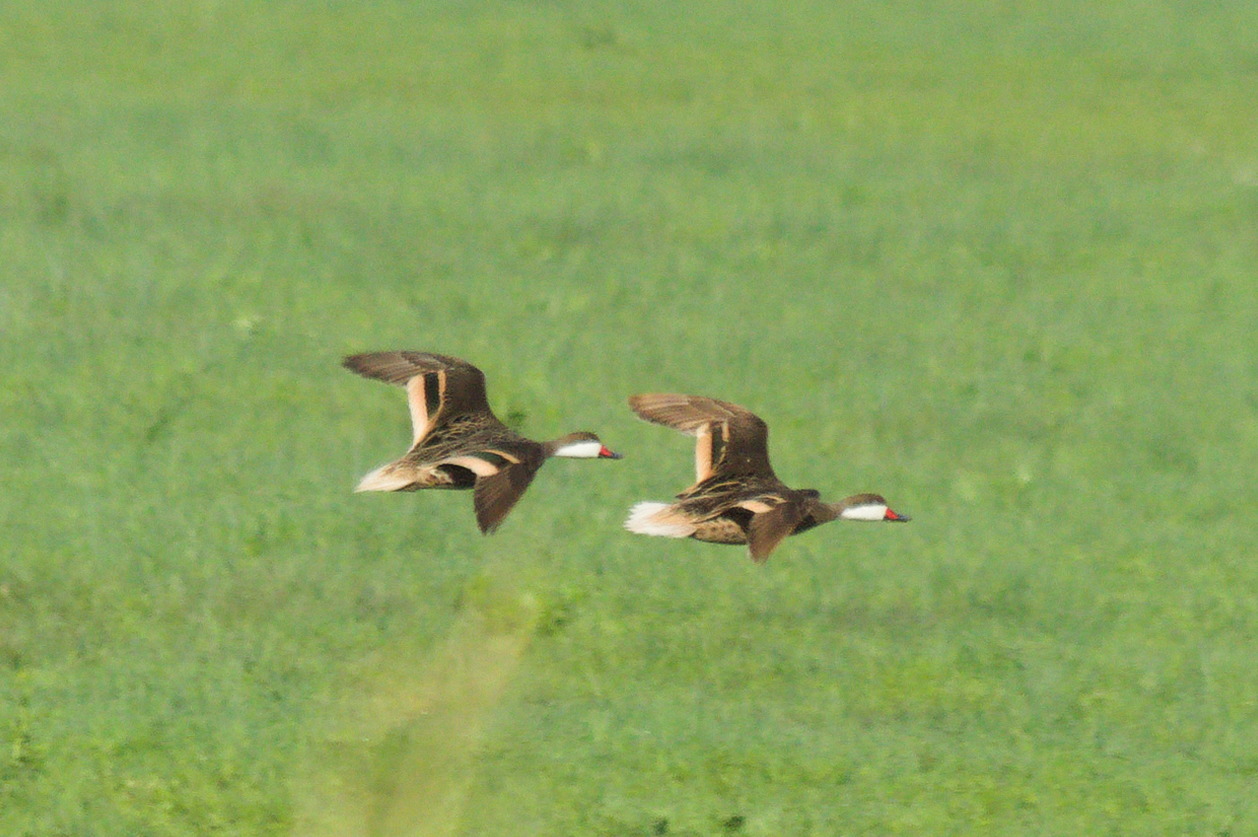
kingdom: Animalia
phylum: Chordata
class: Aves
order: Anseriformes
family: Anatidae
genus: Anas
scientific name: Anas bahamensis
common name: White-cheeked pintail
